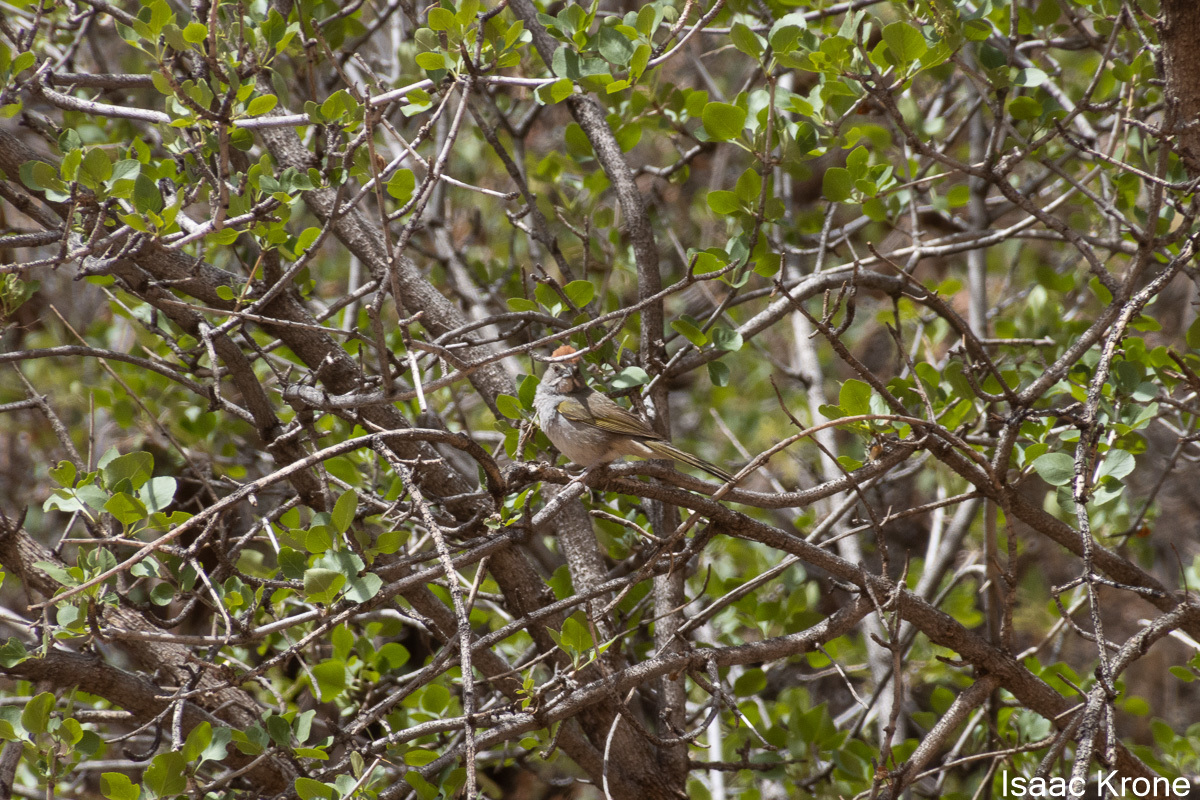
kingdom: Animalia
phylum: Chordata
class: Aves
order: Passeriformes
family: Passerellidae
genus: Pipilo
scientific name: Pipilo chlorurus
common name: Green-tailed towhee
